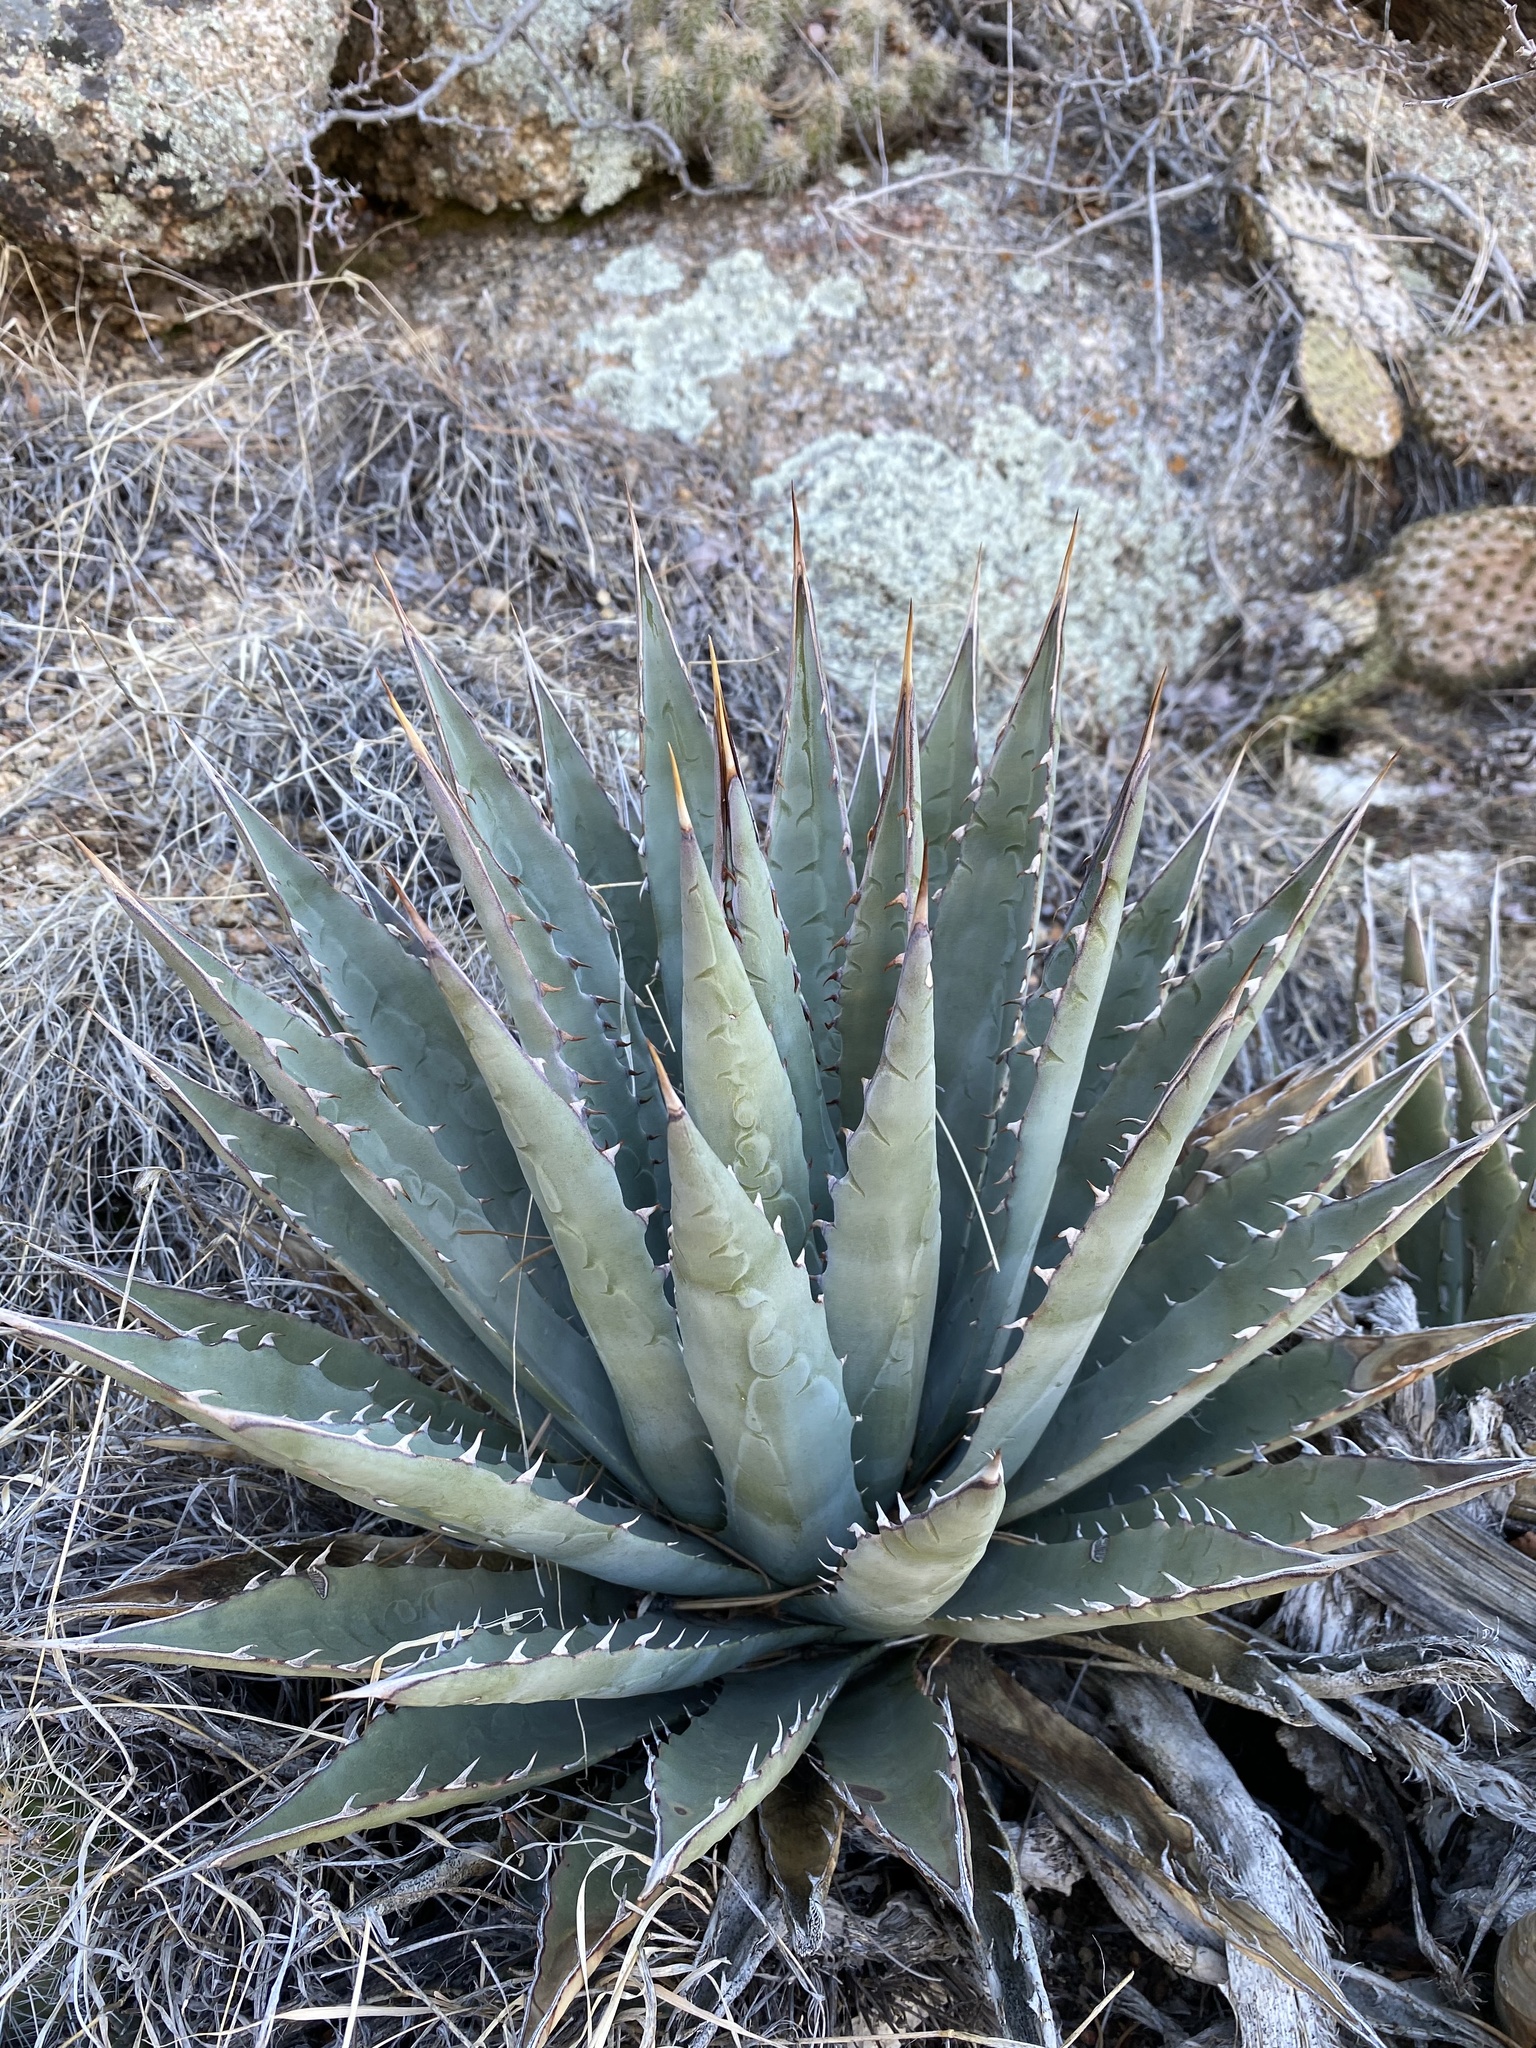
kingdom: Plantae
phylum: Tracheophyta
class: Liliopsida
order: Asparagales
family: Asparagaceae
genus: Agave
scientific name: Agave mckelveyana
